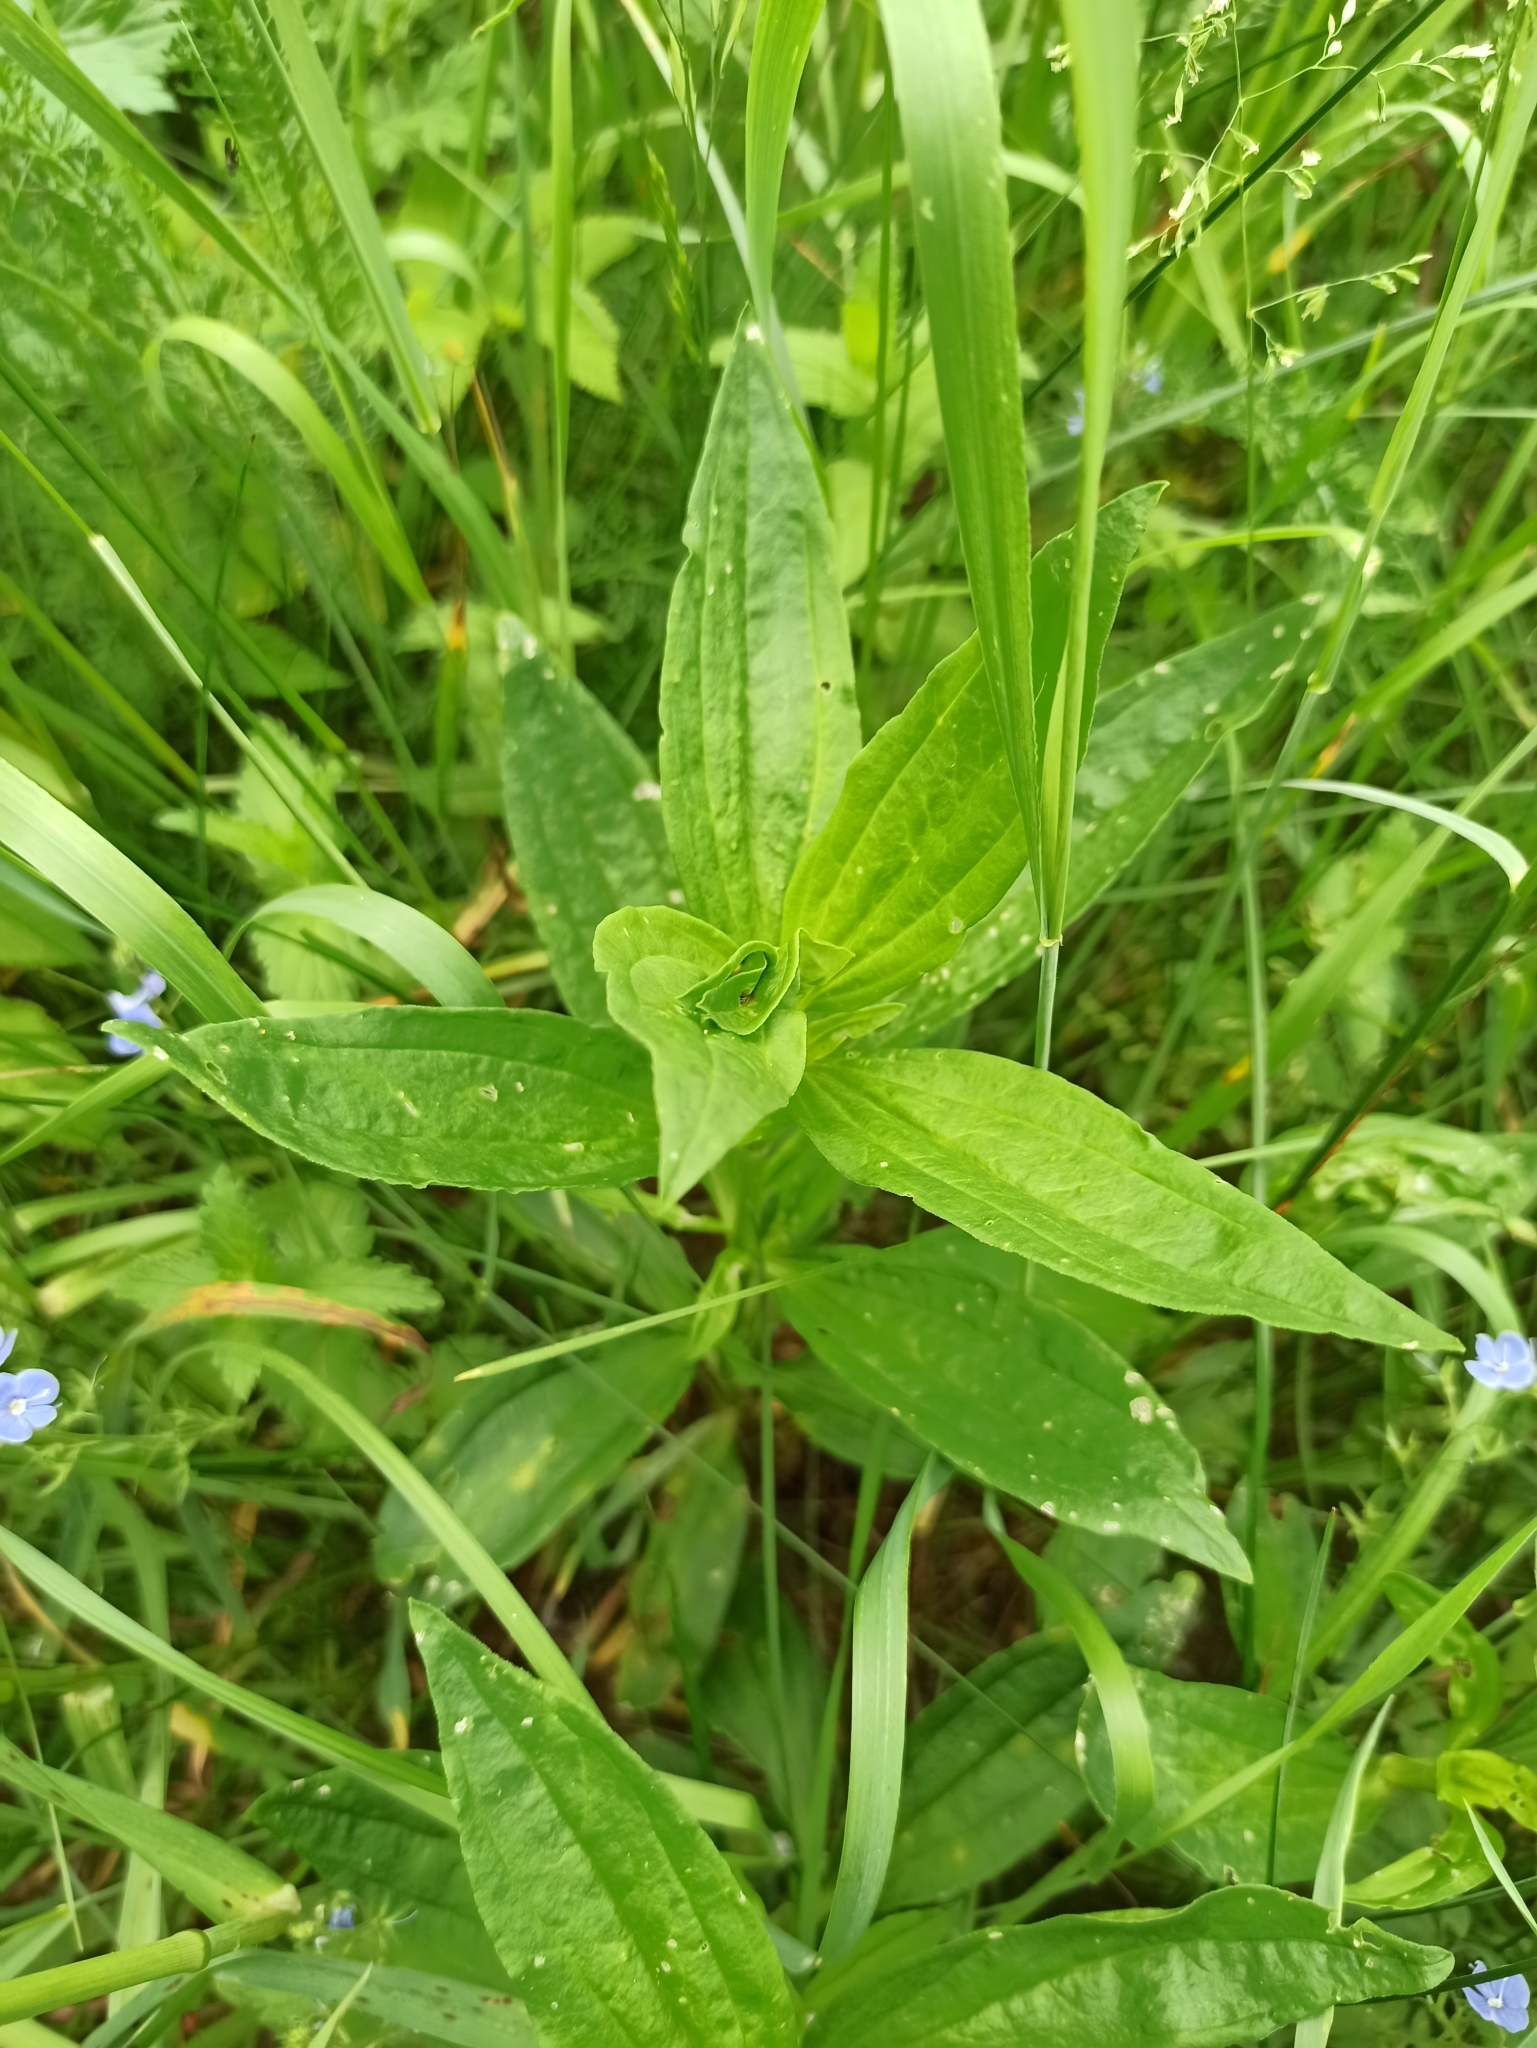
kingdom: Plantae
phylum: Tracheophyta
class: Magnoliopsida
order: Caryophyllales
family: Caryophyllaceae
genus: Saponaria
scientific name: Saponaria officinalis
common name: Soapwort
